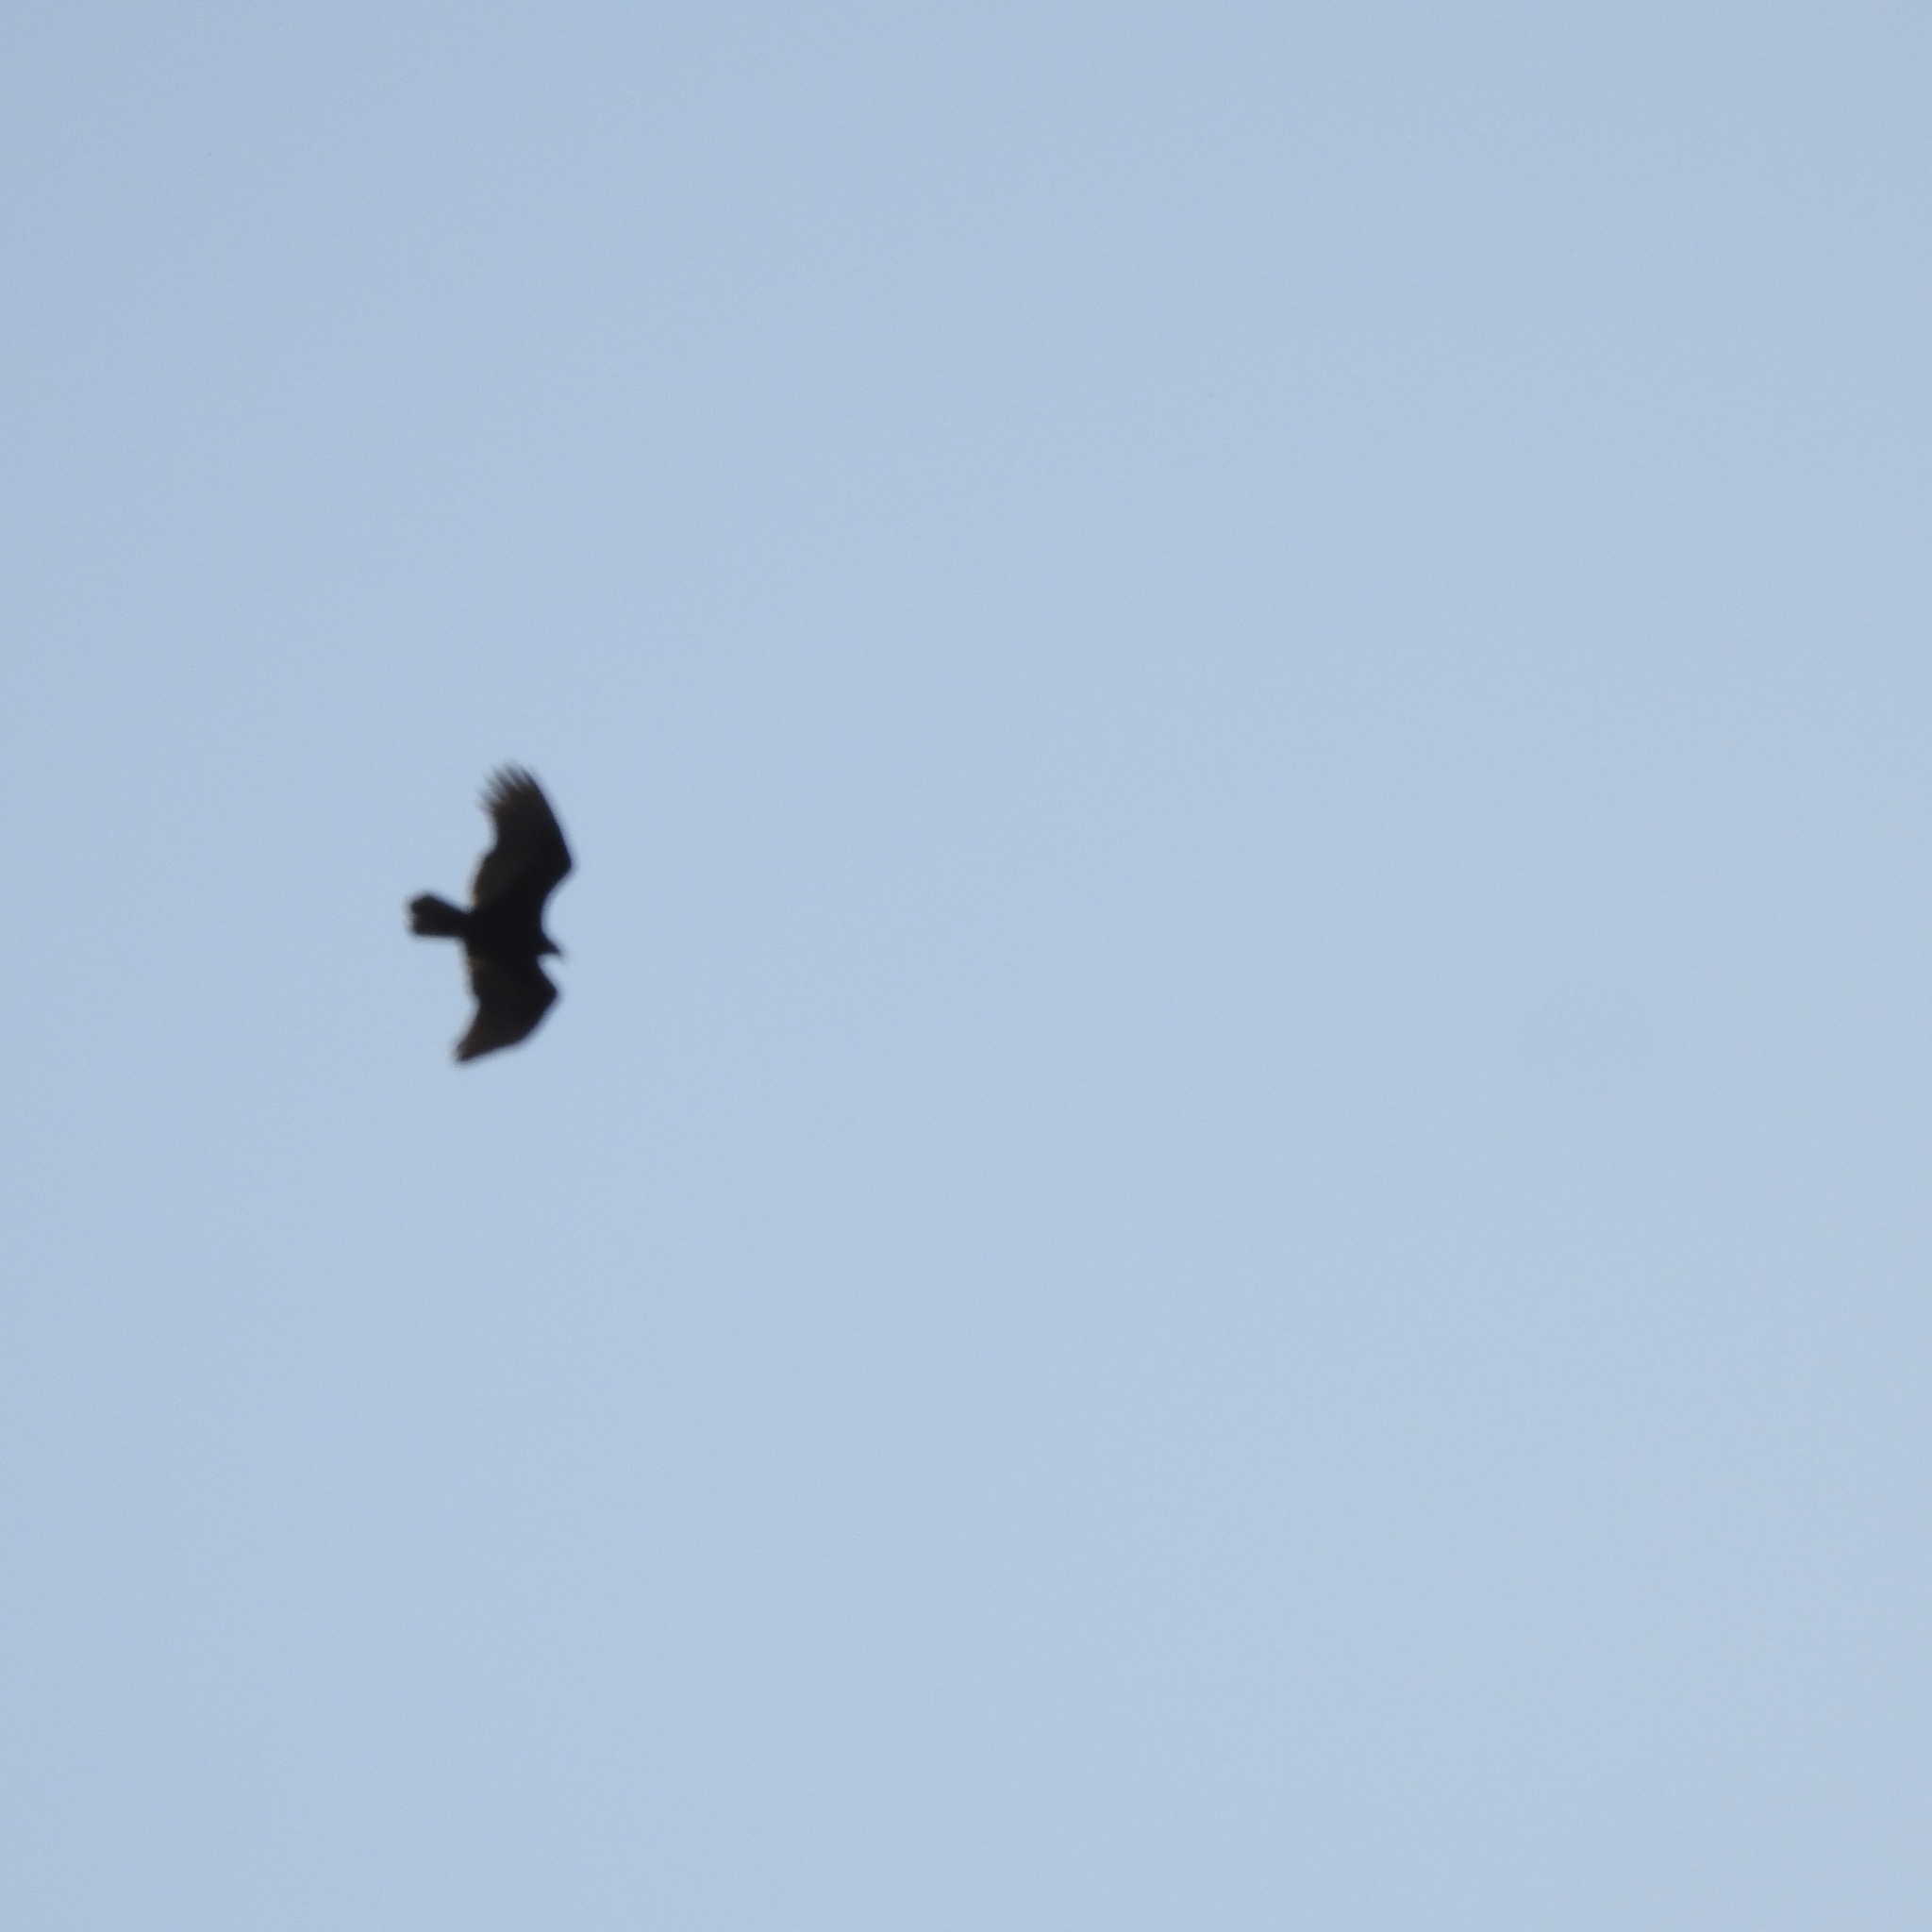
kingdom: Animalia
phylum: Chordata
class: Aves
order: Accipitriformes
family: Cathartidae
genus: Cathartes
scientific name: Cathartes aura
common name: Turkey vulture
